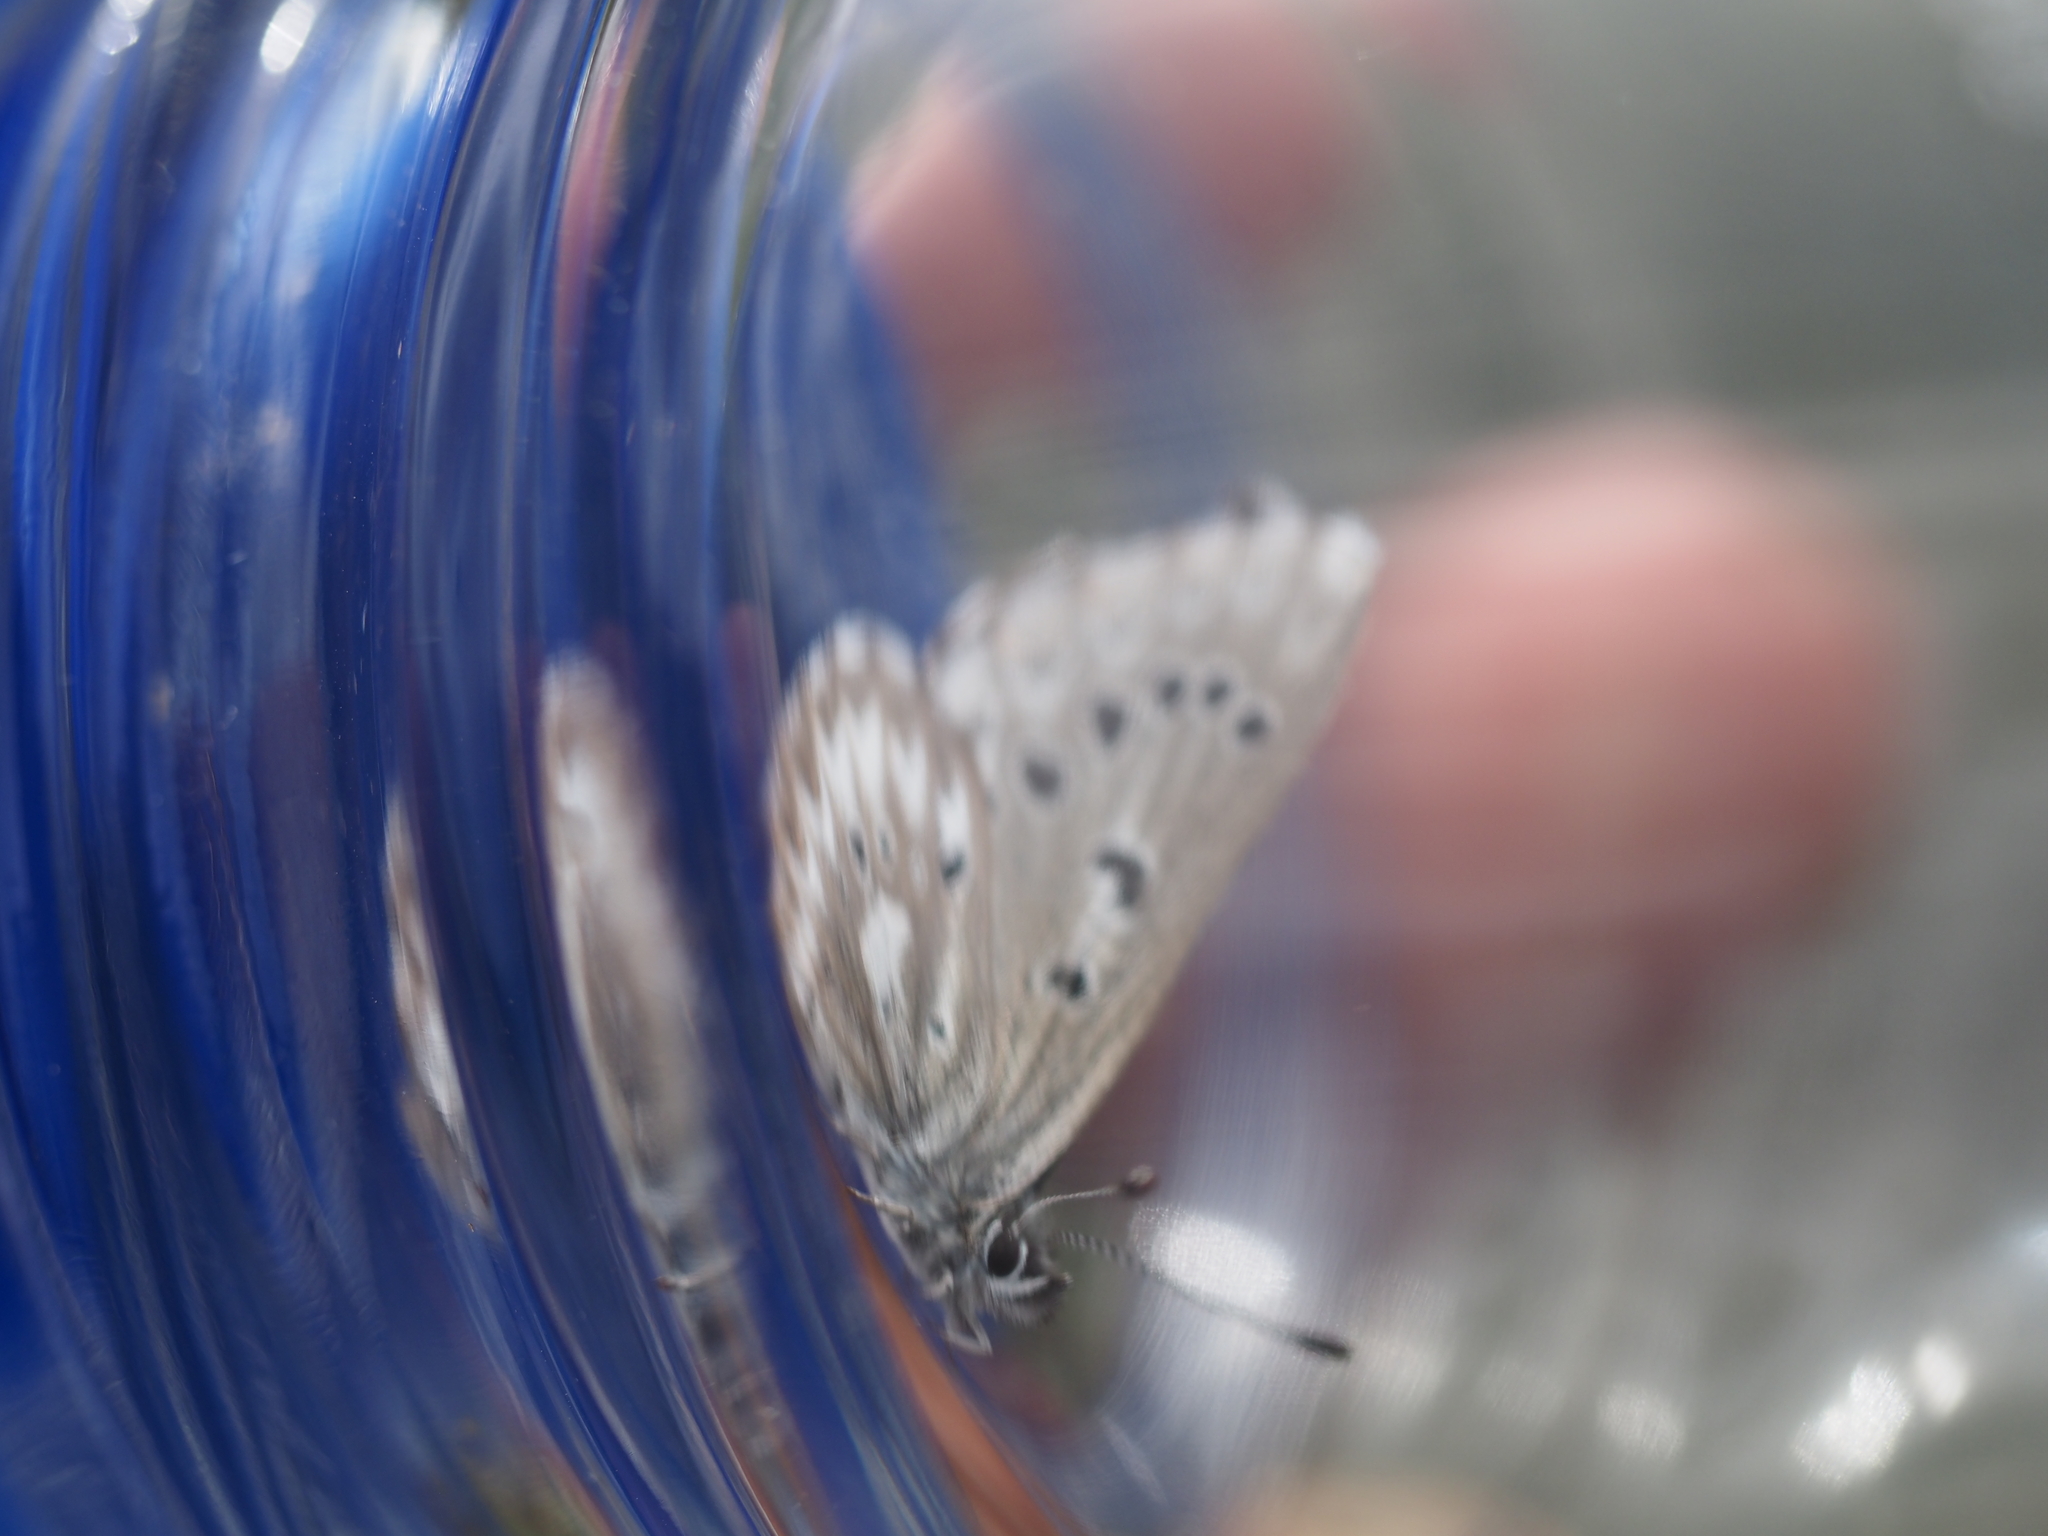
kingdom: Animalia
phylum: Arthropoda
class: Insecta
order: Lepidoptera
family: Lycaenidae
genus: Glaucopsyche
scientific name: Glaucopsyche piasus
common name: Arrowhead blue
